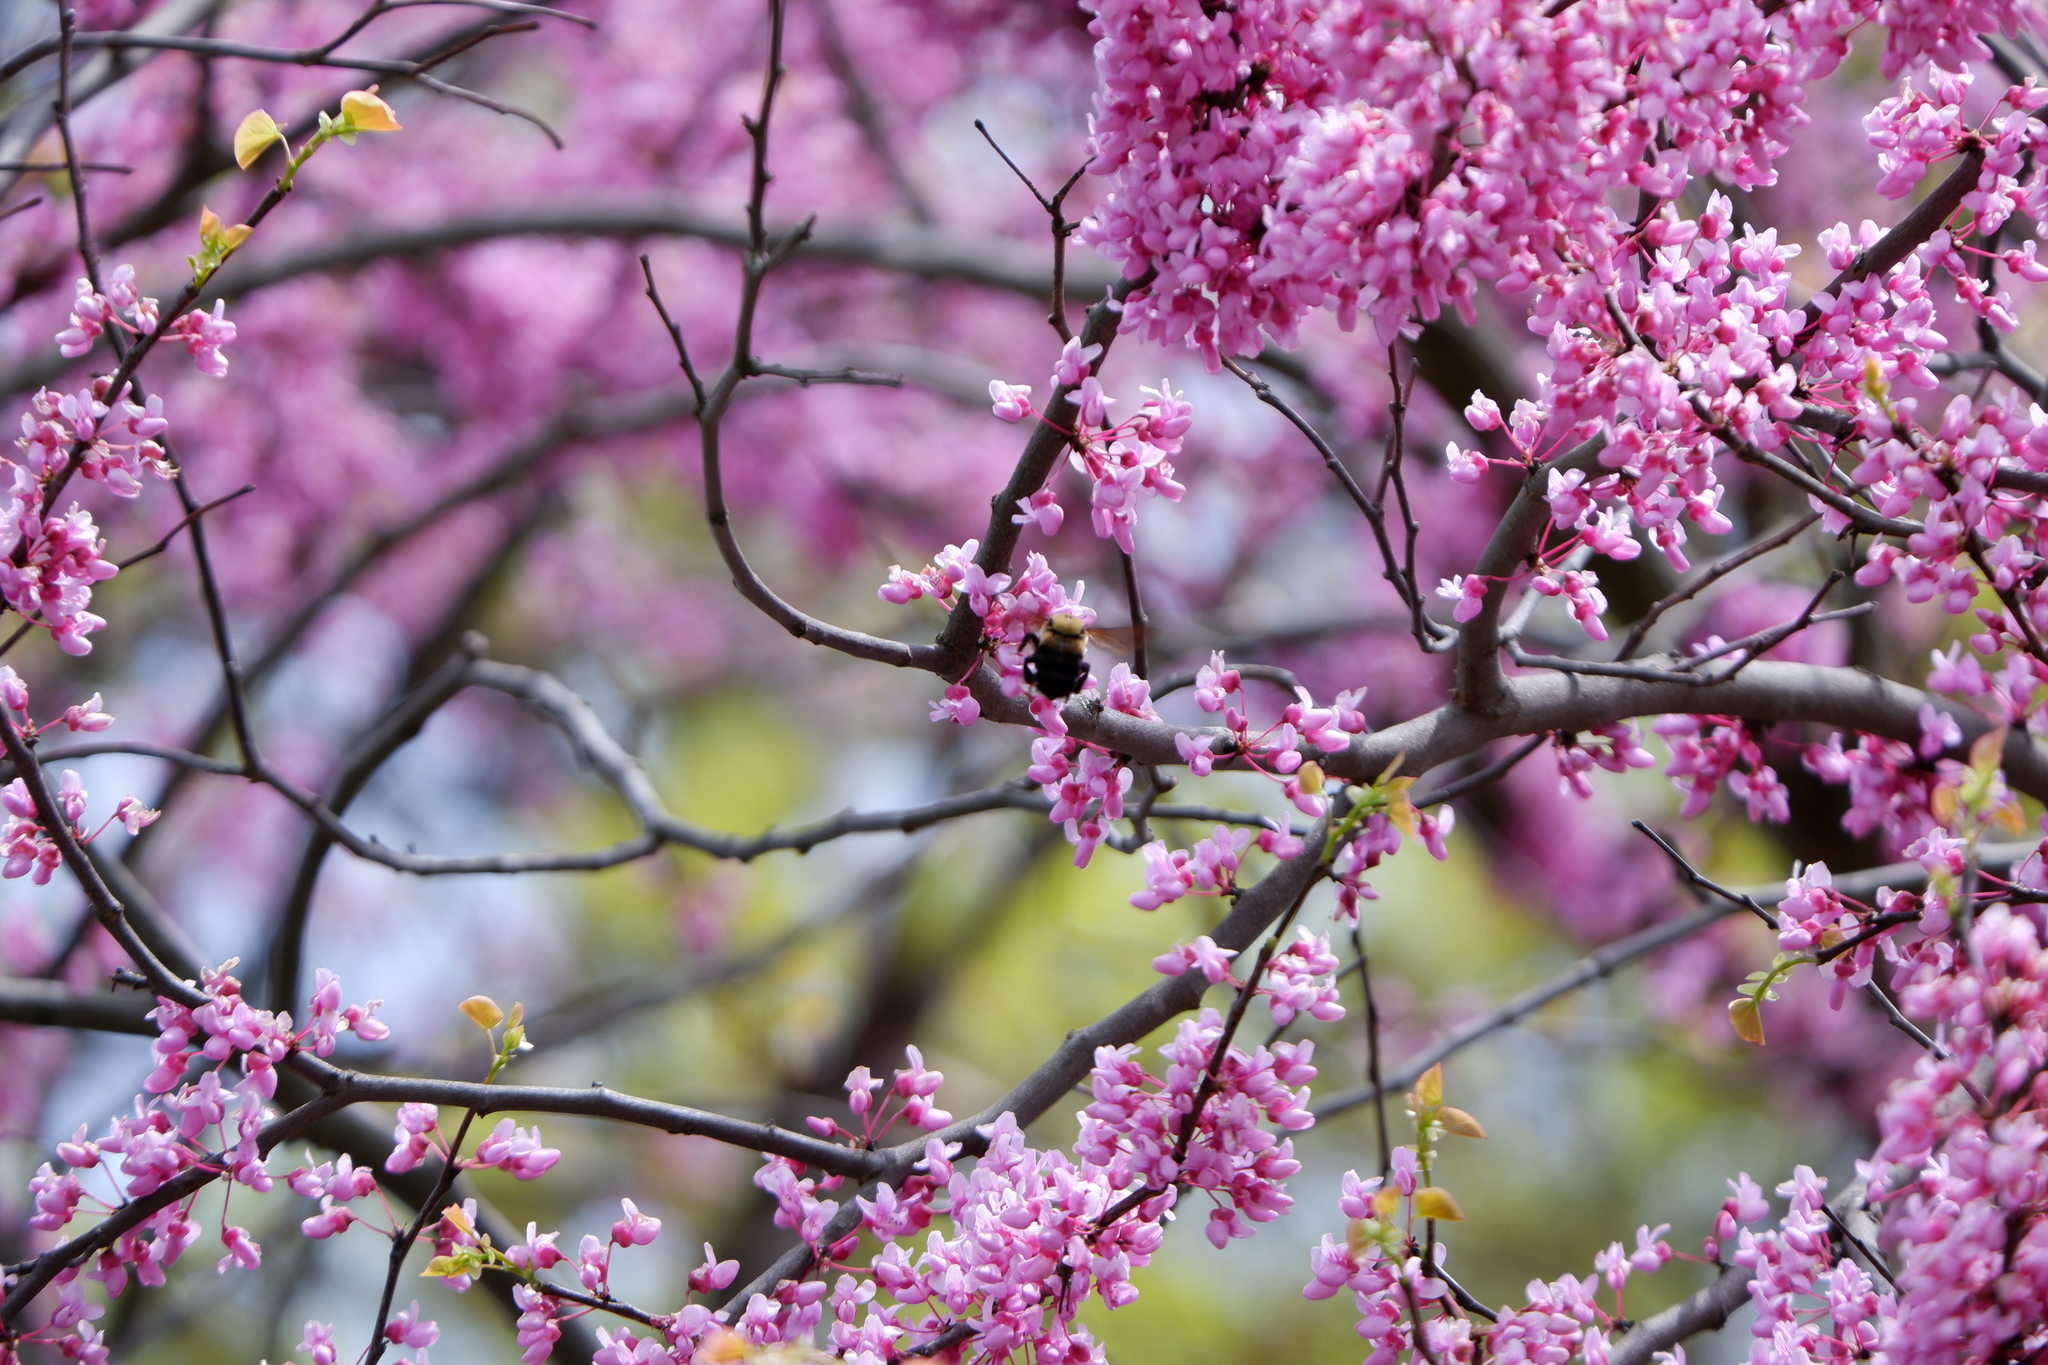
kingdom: Animalia
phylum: Arthropoda
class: Insecta
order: Hymenoptera
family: Apidae
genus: Bombus
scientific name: Bombus griseocollis
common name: Brown-belted bumble bee
